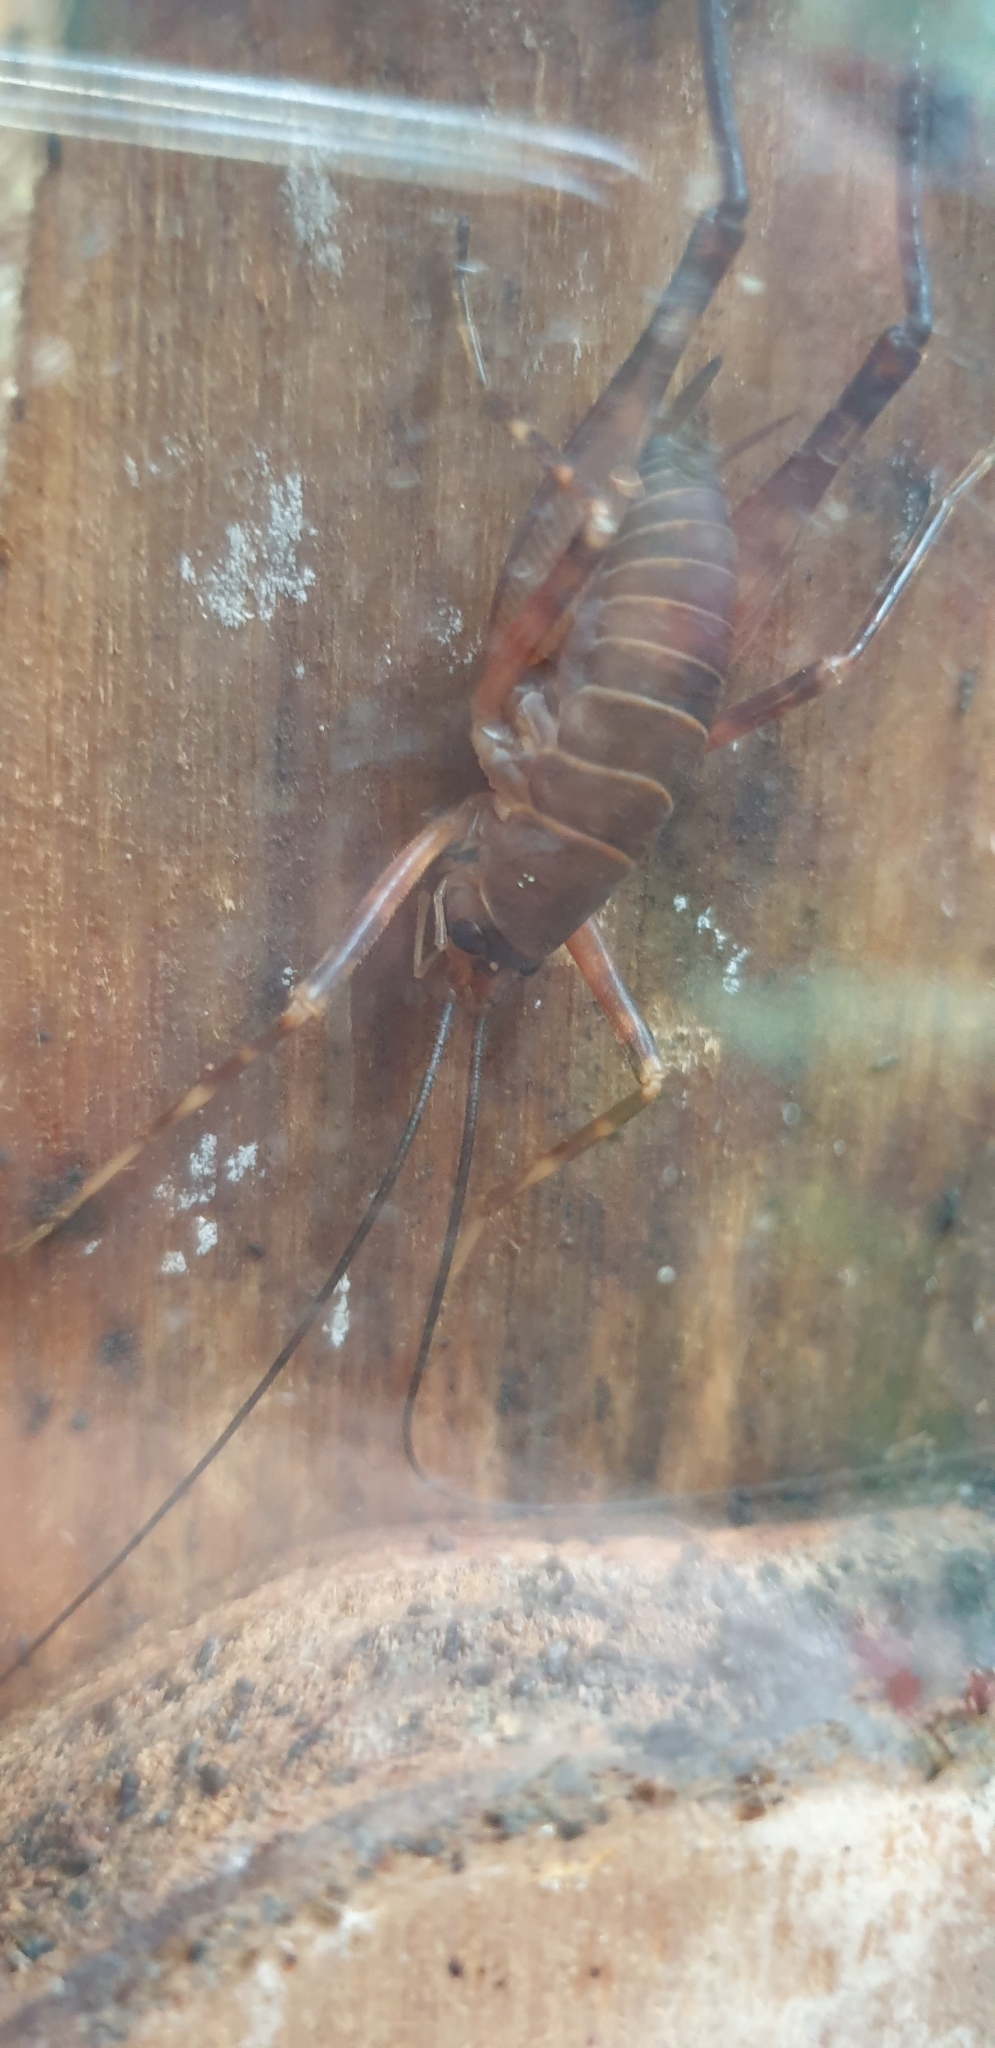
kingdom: Animalia
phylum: Arthropoda
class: Insecta
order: Orthoptera
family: Rhaphidophoridae
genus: Pachyrhamma
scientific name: Pachyrhamma longipes
